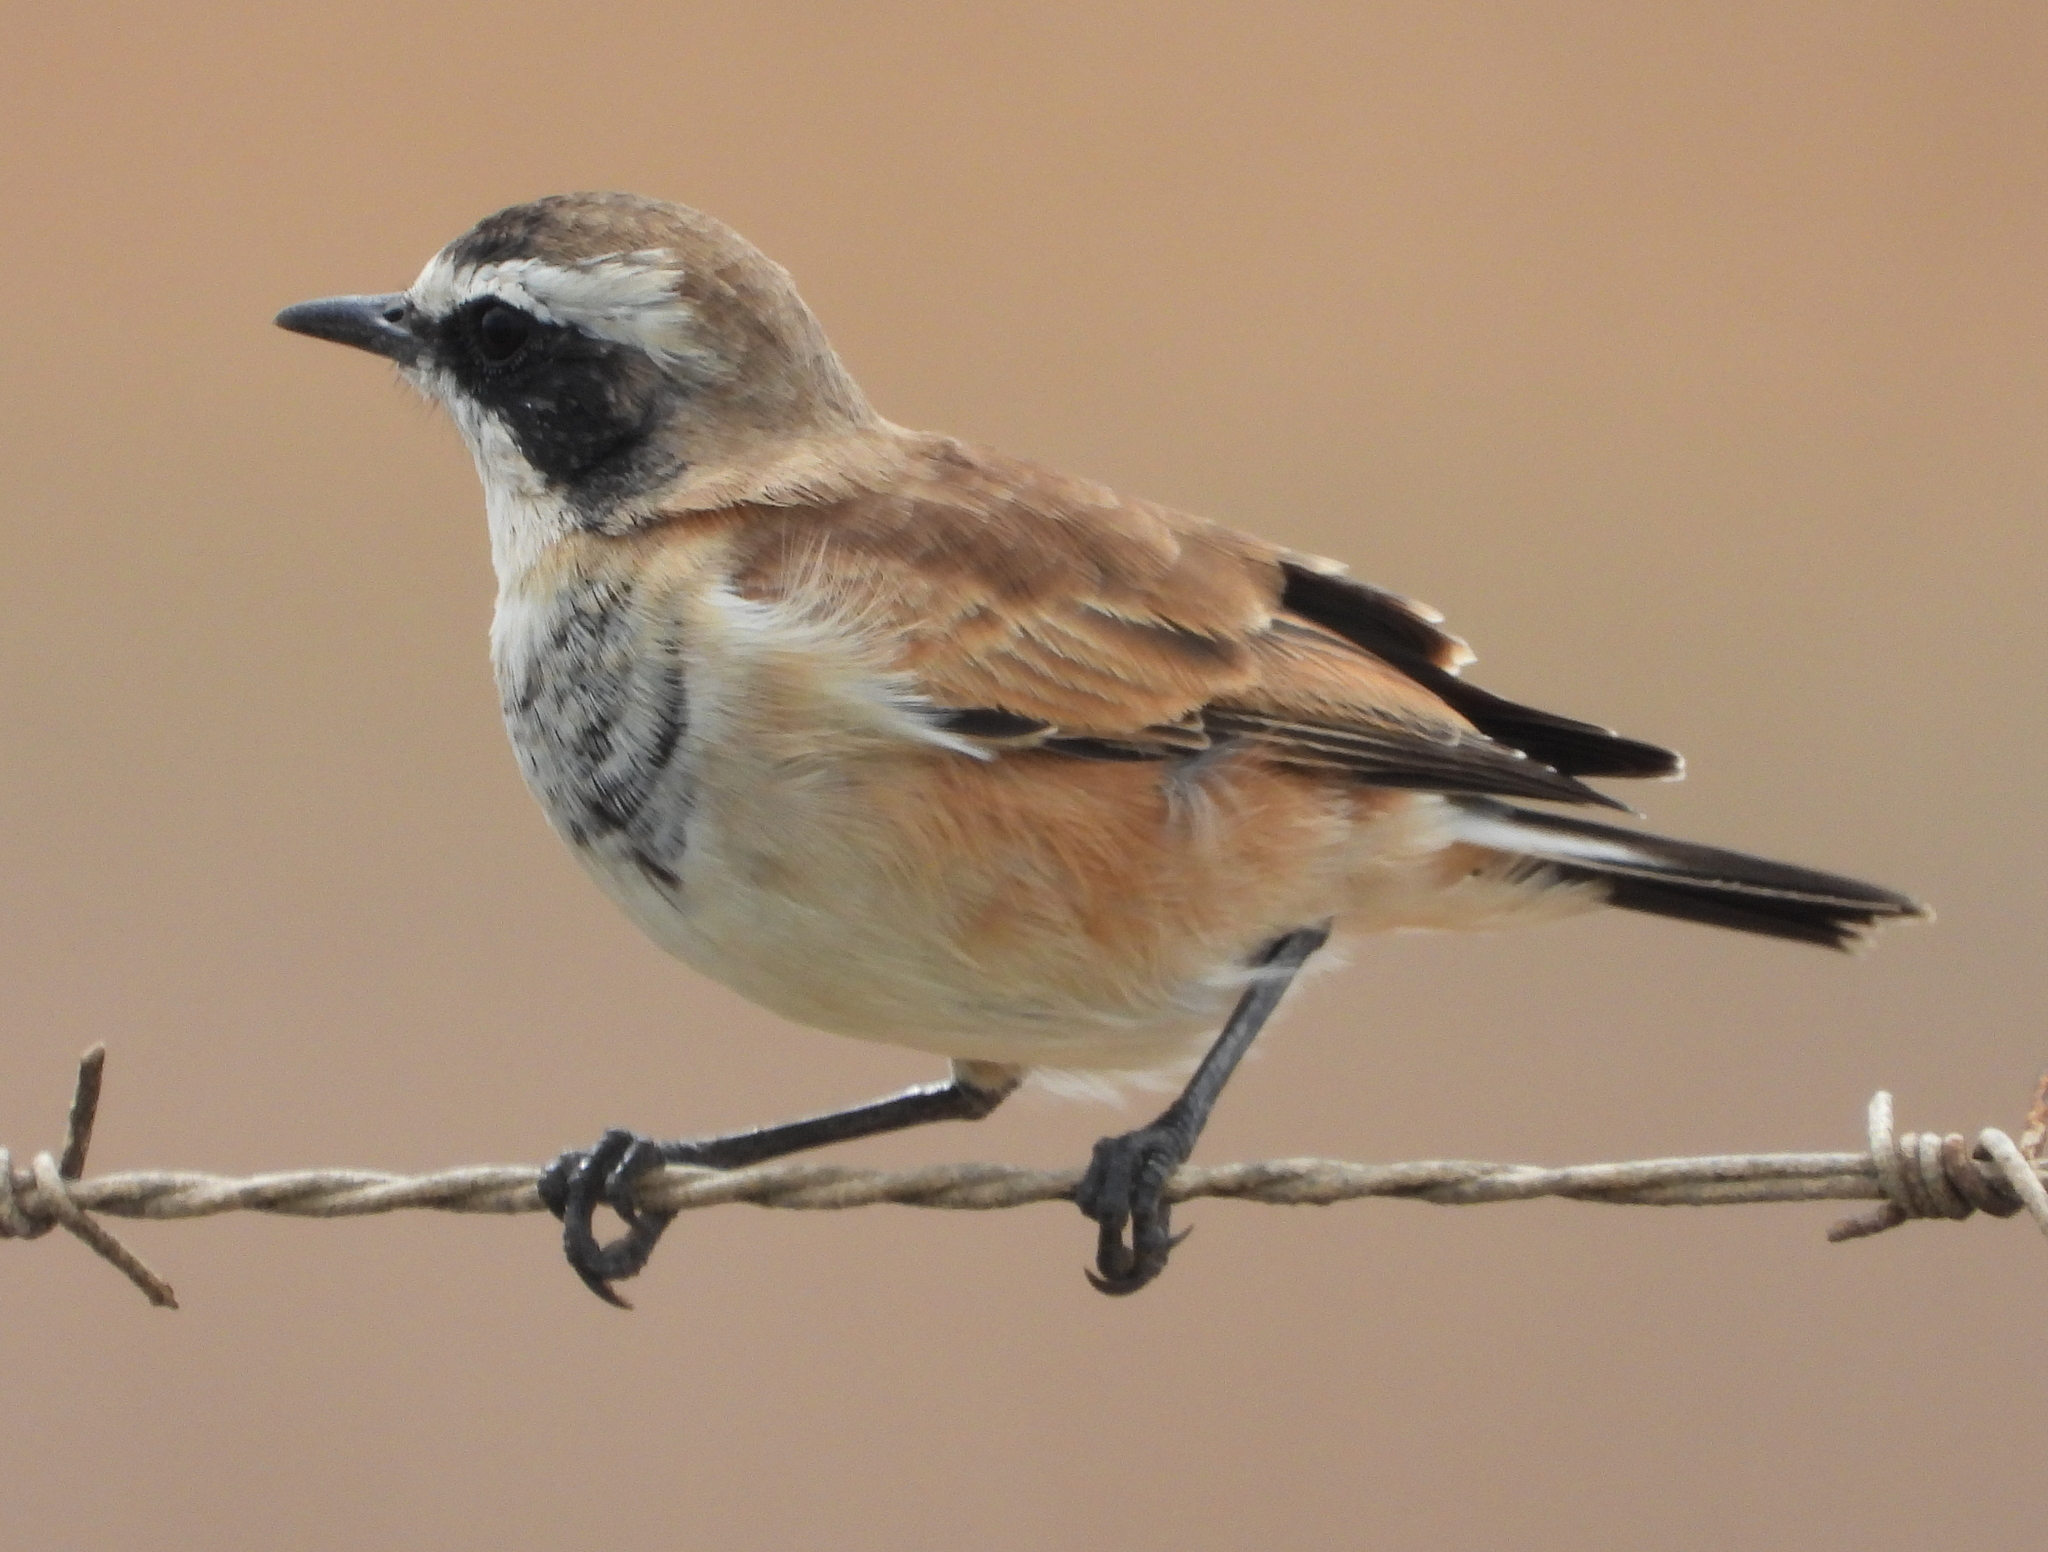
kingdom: Animalia
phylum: Chordata
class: Aves
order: Passeriformes
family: Muscicapidae
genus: Oenanthe
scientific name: Oenanthe pileata
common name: Capped wheatear
